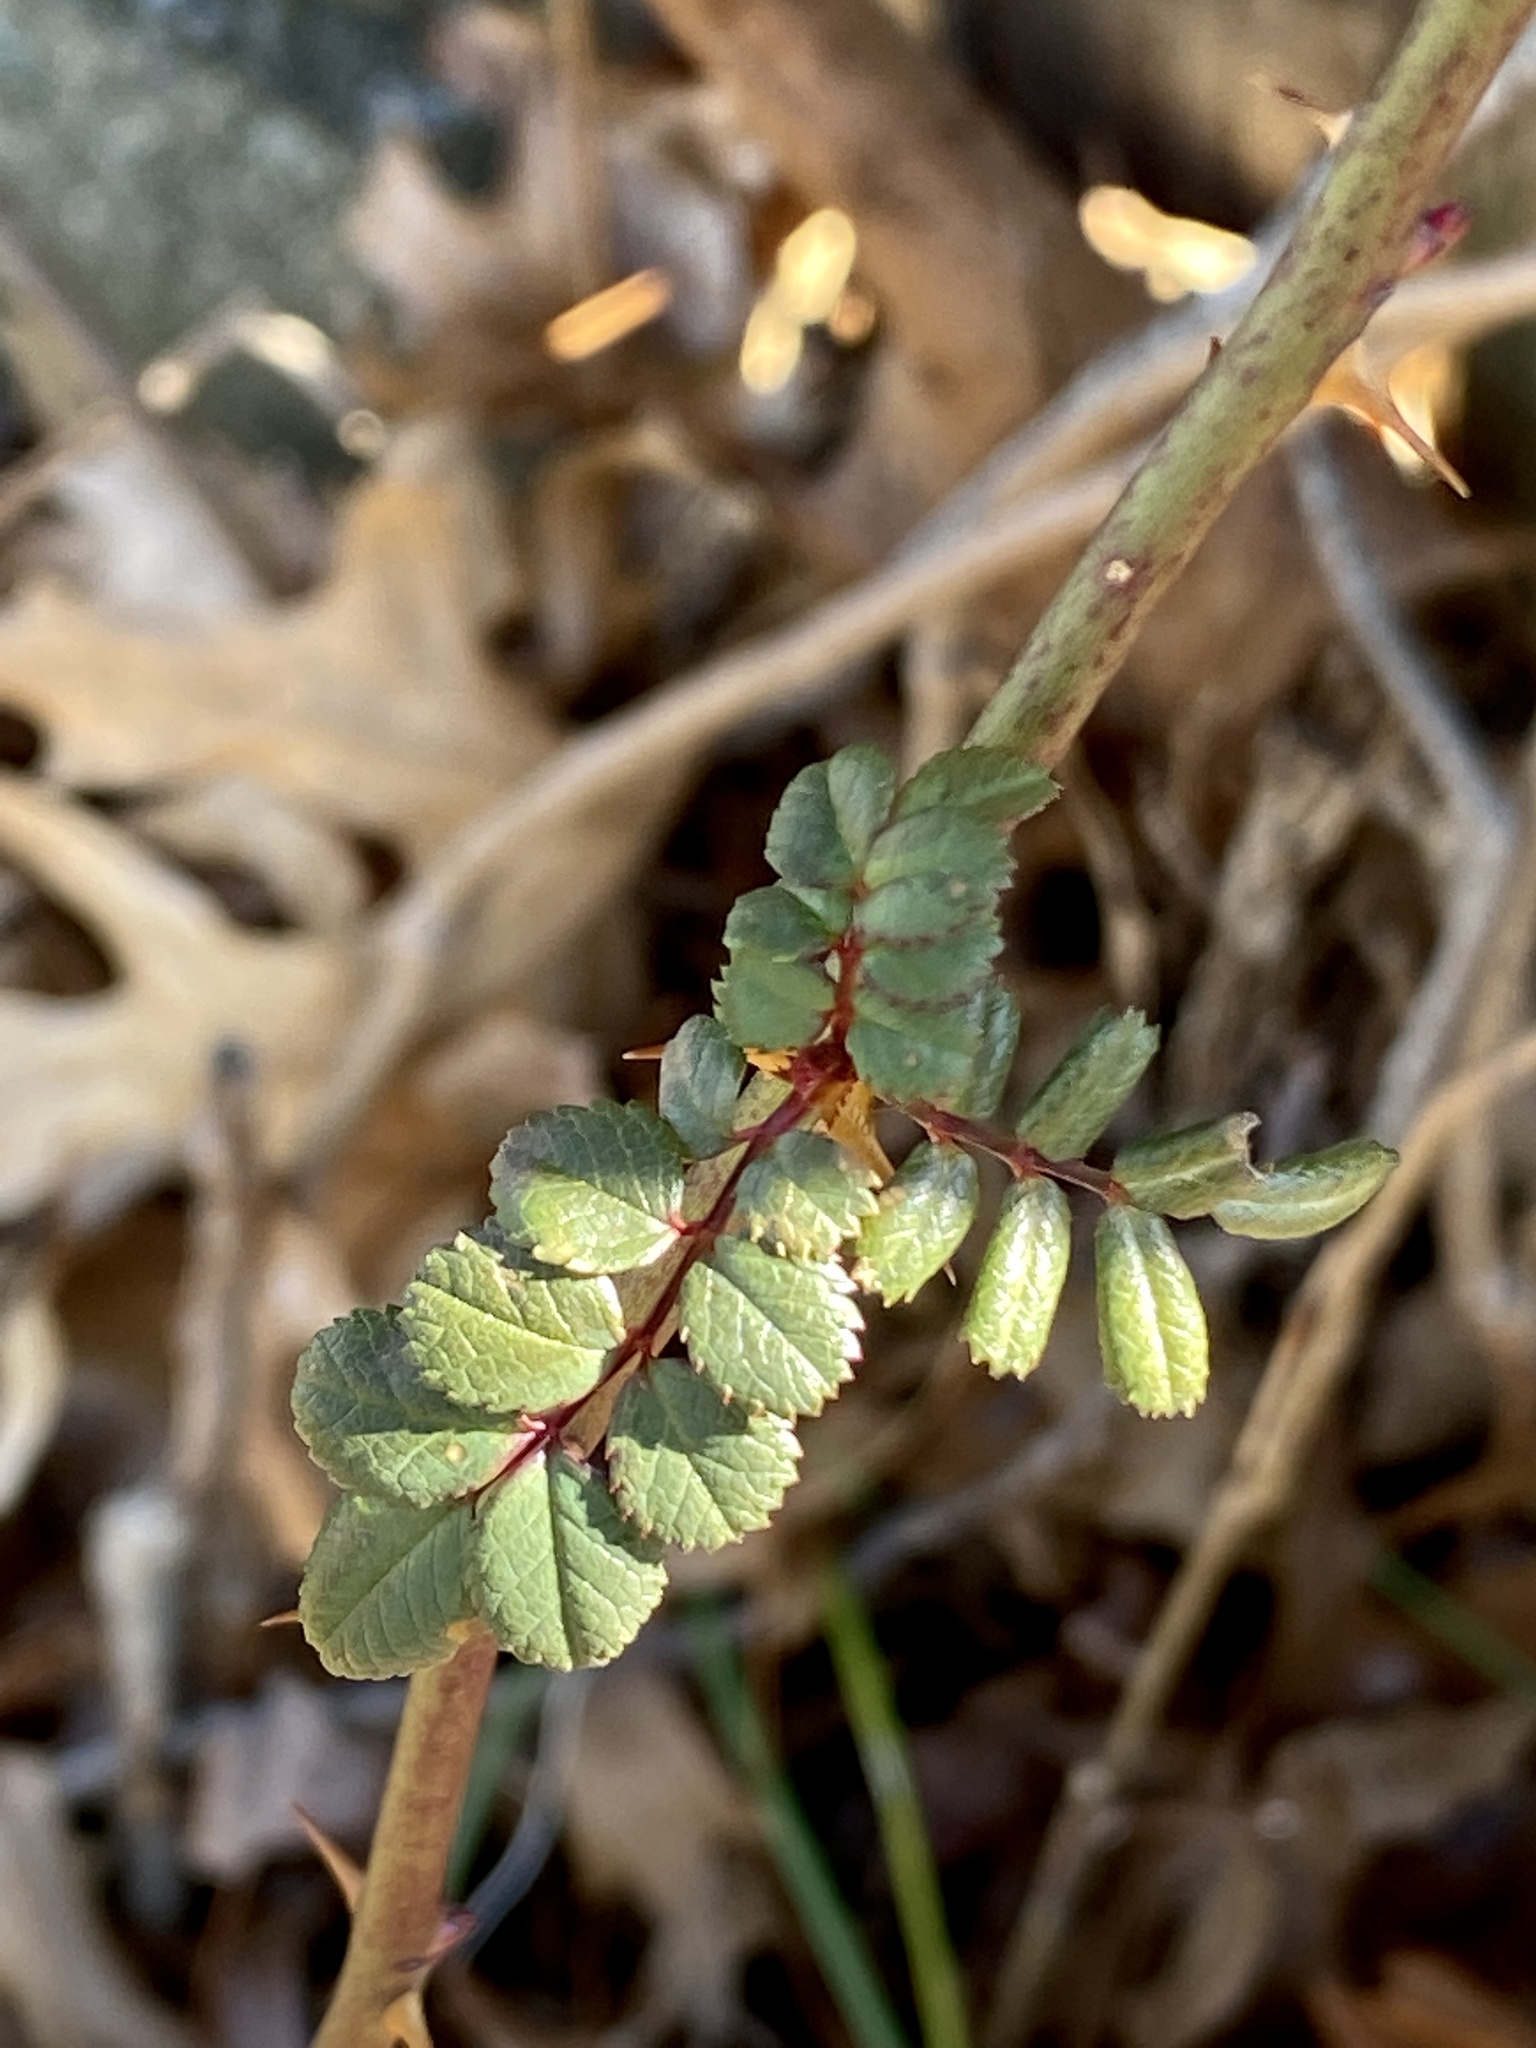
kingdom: Plantae
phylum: Tracheophyta
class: Magnoliopsida
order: Rosales
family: Rosaceae
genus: Rosa
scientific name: Rosa multiflora
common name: Multiflora rose
